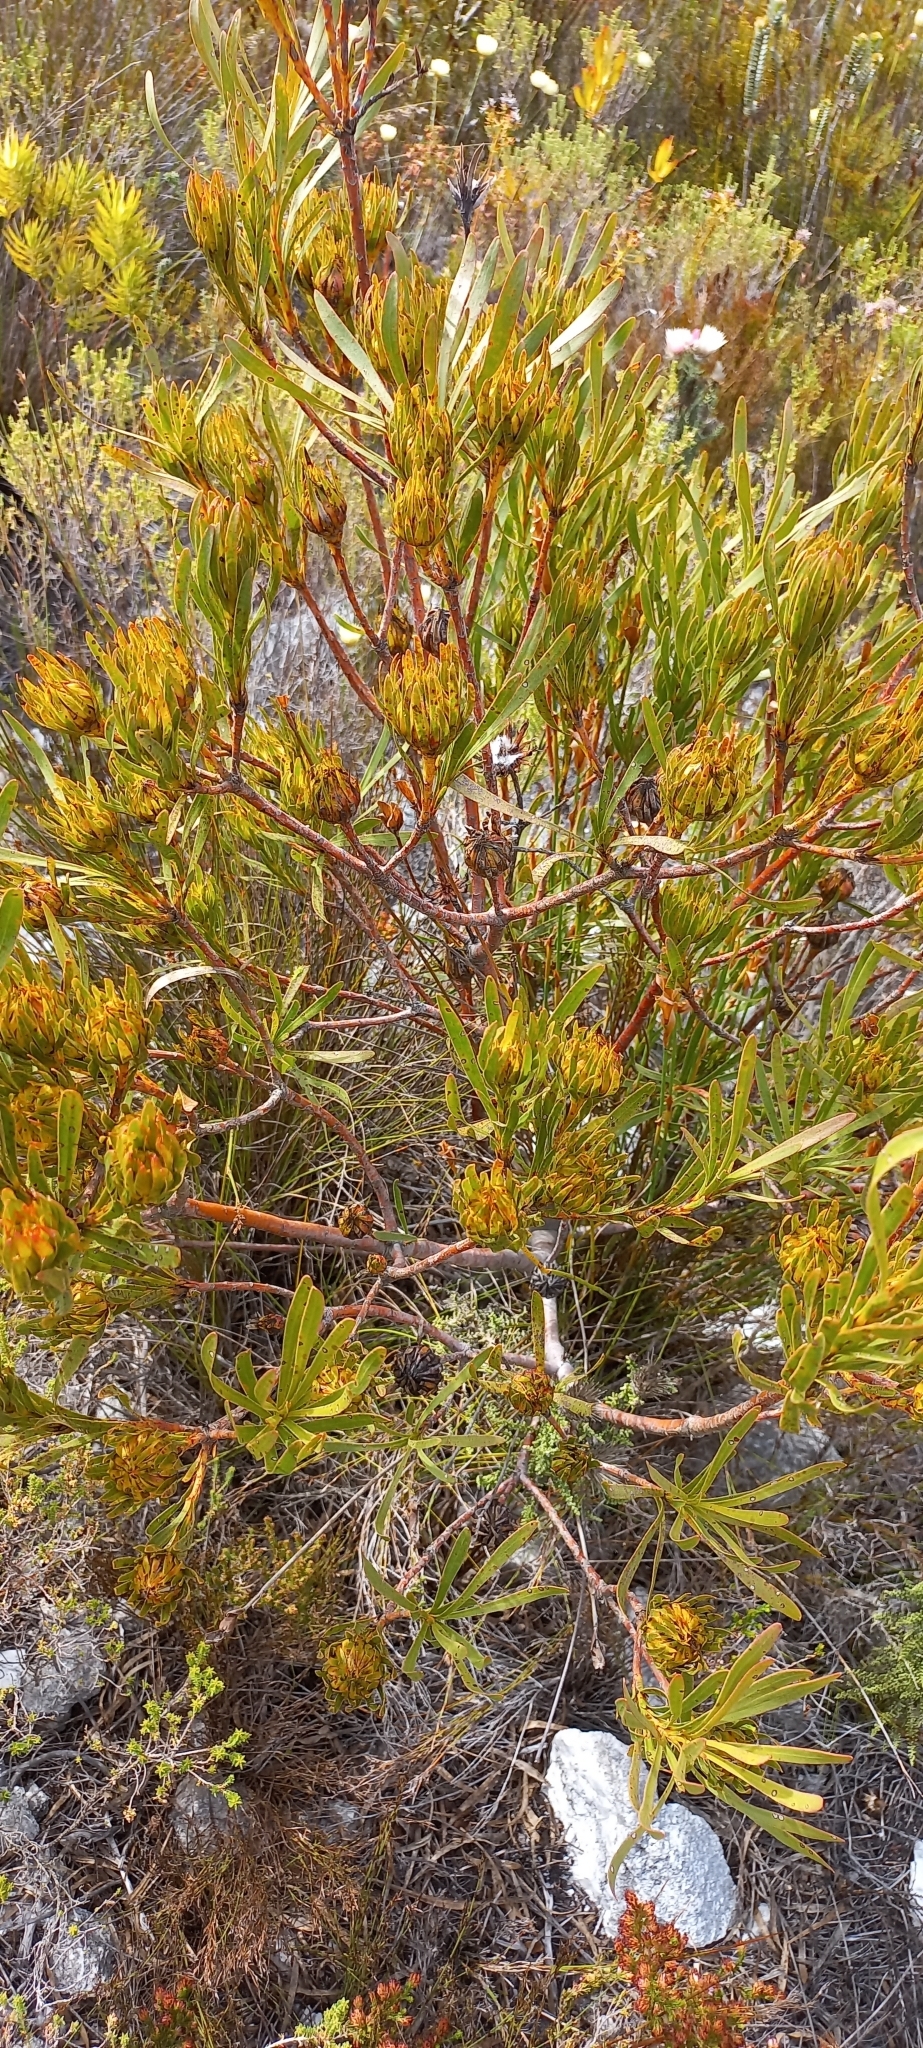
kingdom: Plantae
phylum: Tracheophyta
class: Magnoliopsida
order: Proteales
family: Proteaceae
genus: Aulax
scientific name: Aulax umbellata
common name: Broad-leaf featherbush
